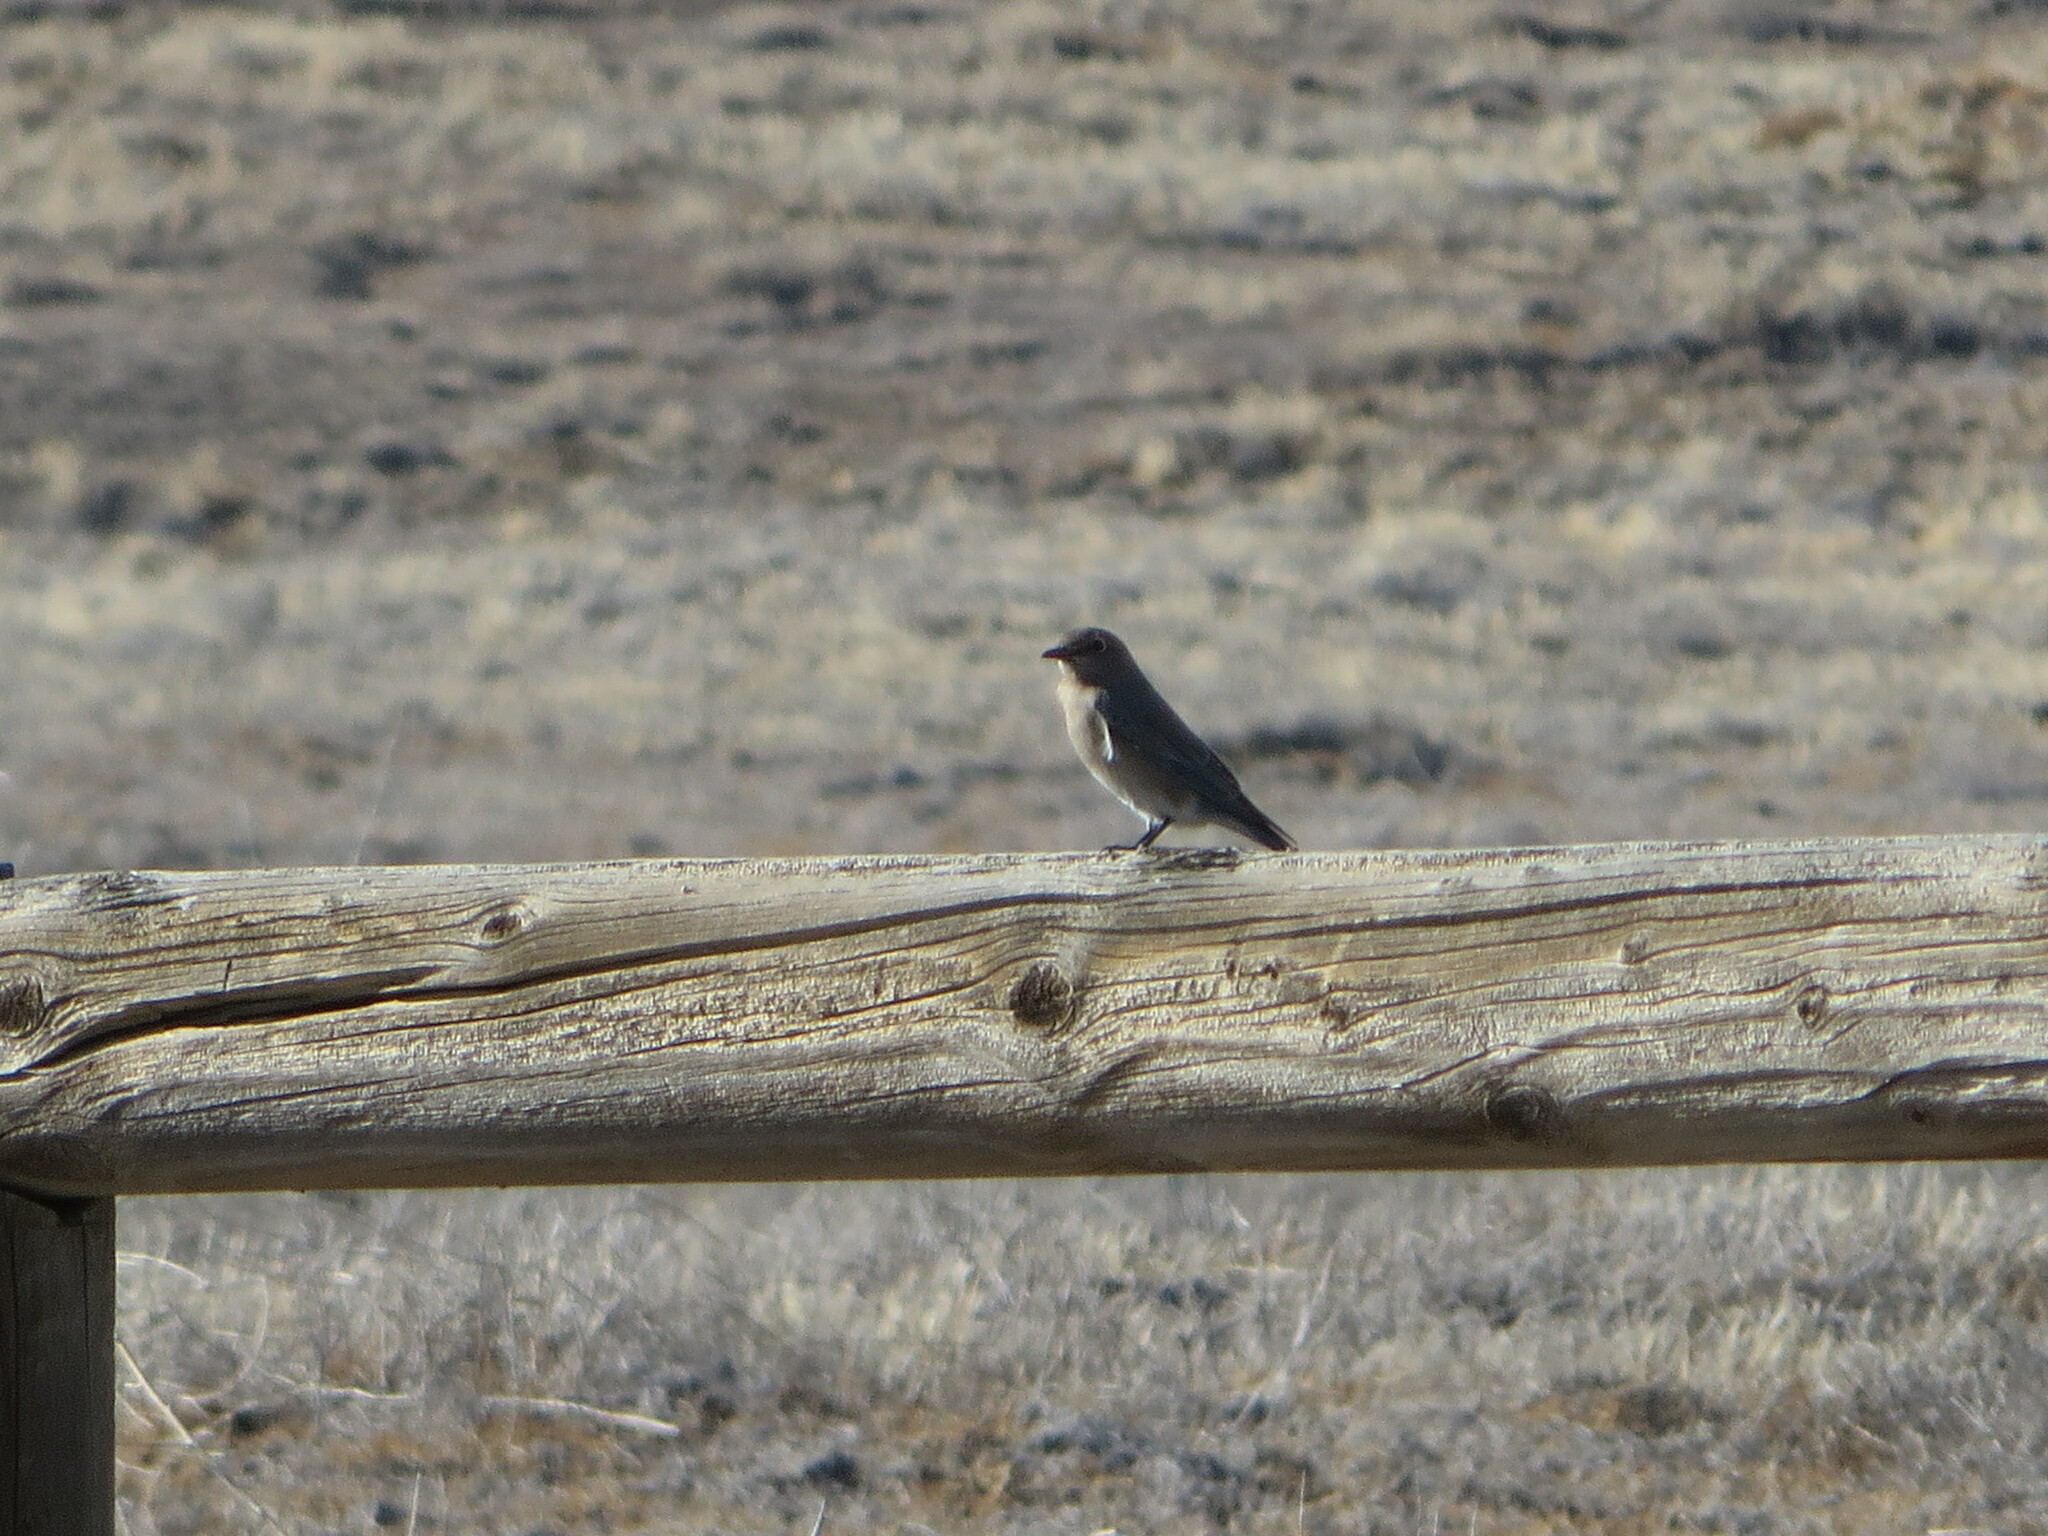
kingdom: Animalia
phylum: Chordata
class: Aves
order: Passeriformes
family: Turdidae
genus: Sialia
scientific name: Sialia currucoides
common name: Mountain bluebird
